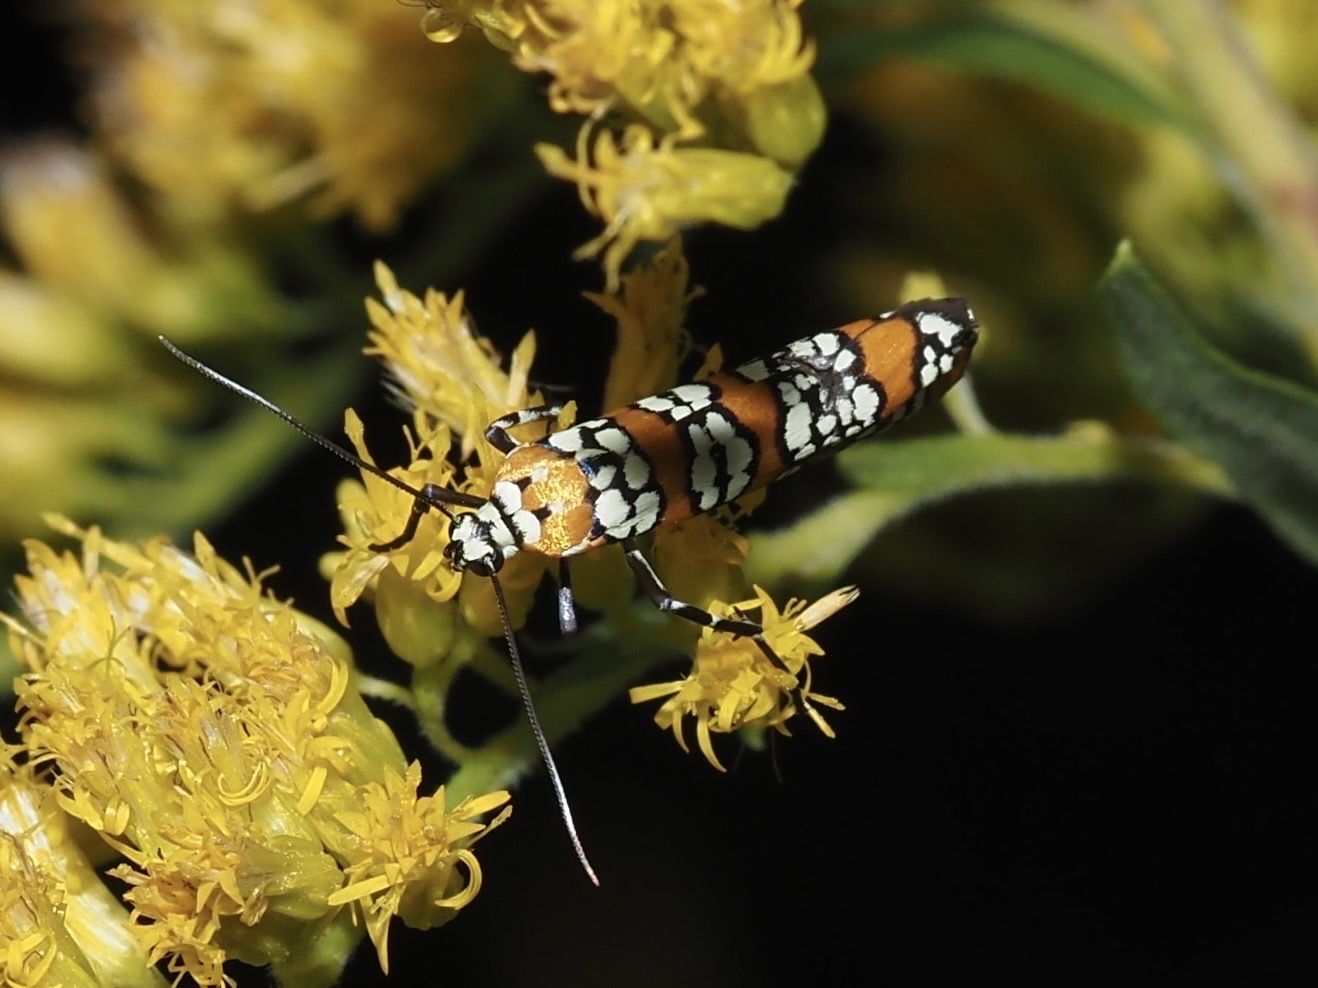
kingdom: Animalia
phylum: Arthropoda
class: Insecta
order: Lepidoptera
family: Attevidae
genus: Atteva
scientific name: Atteva punctella
